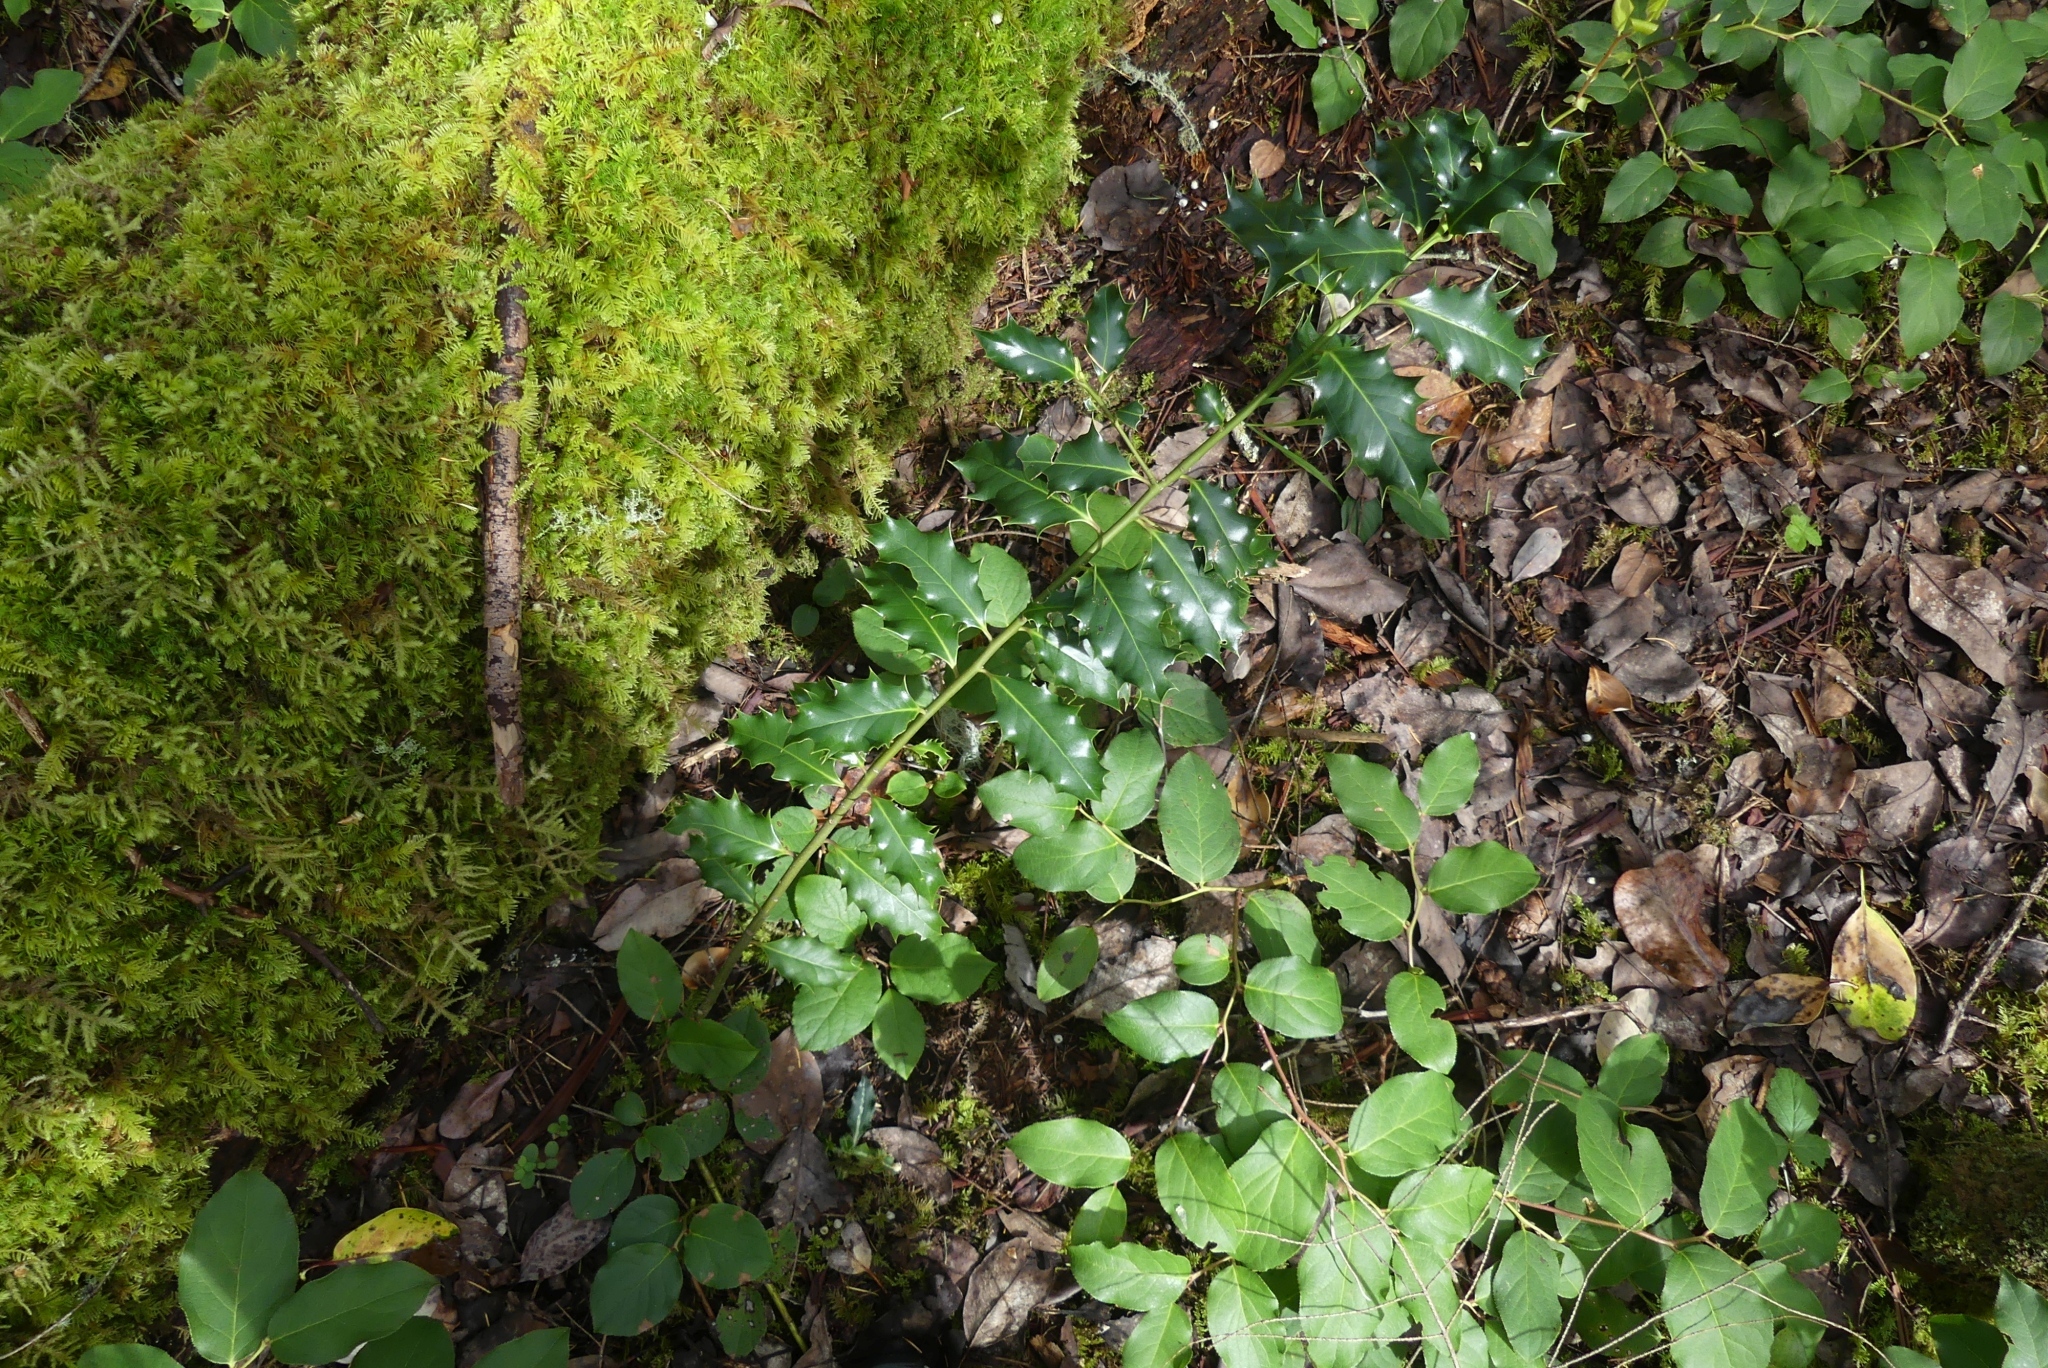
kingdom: Plantae
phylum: Tracheophyta
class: Magnoliopsida
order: Aquifoliales
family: Aquifoliaceae
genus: Ilex
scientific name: Ilex aquifolium
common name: English holly
